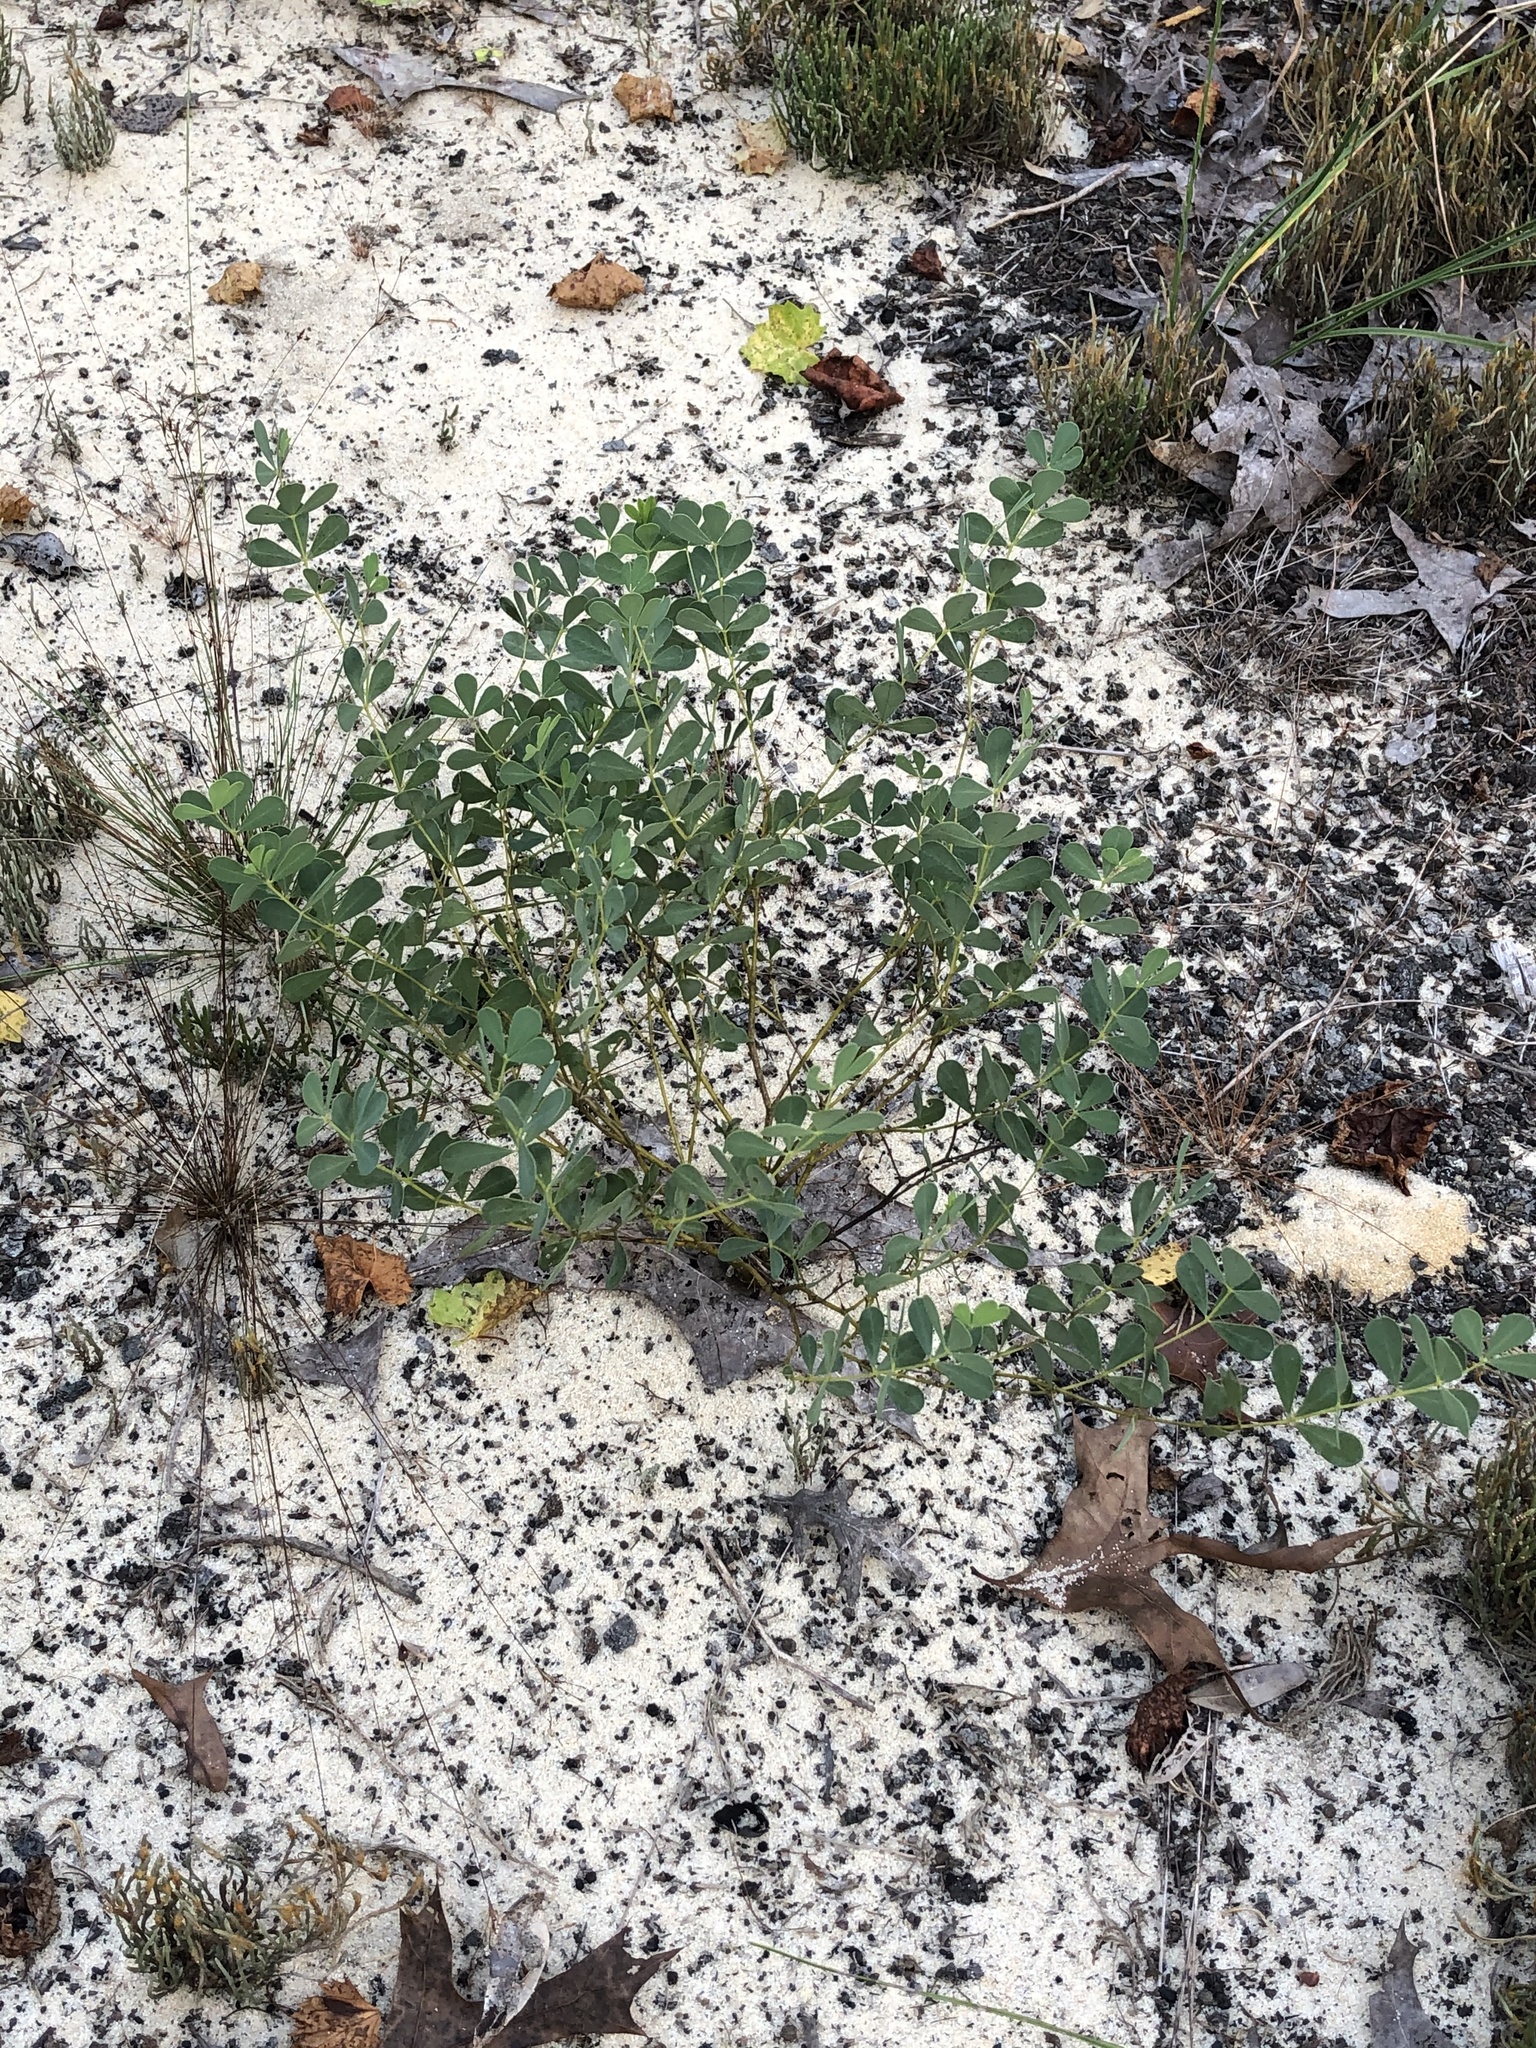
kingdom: Plantae
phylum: Tracheophyta
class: Magnoliopsida
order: Fabales
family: Fabaceae
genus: Baptisia
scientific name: Baptisia lecontei
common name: Pineland wild indigo
